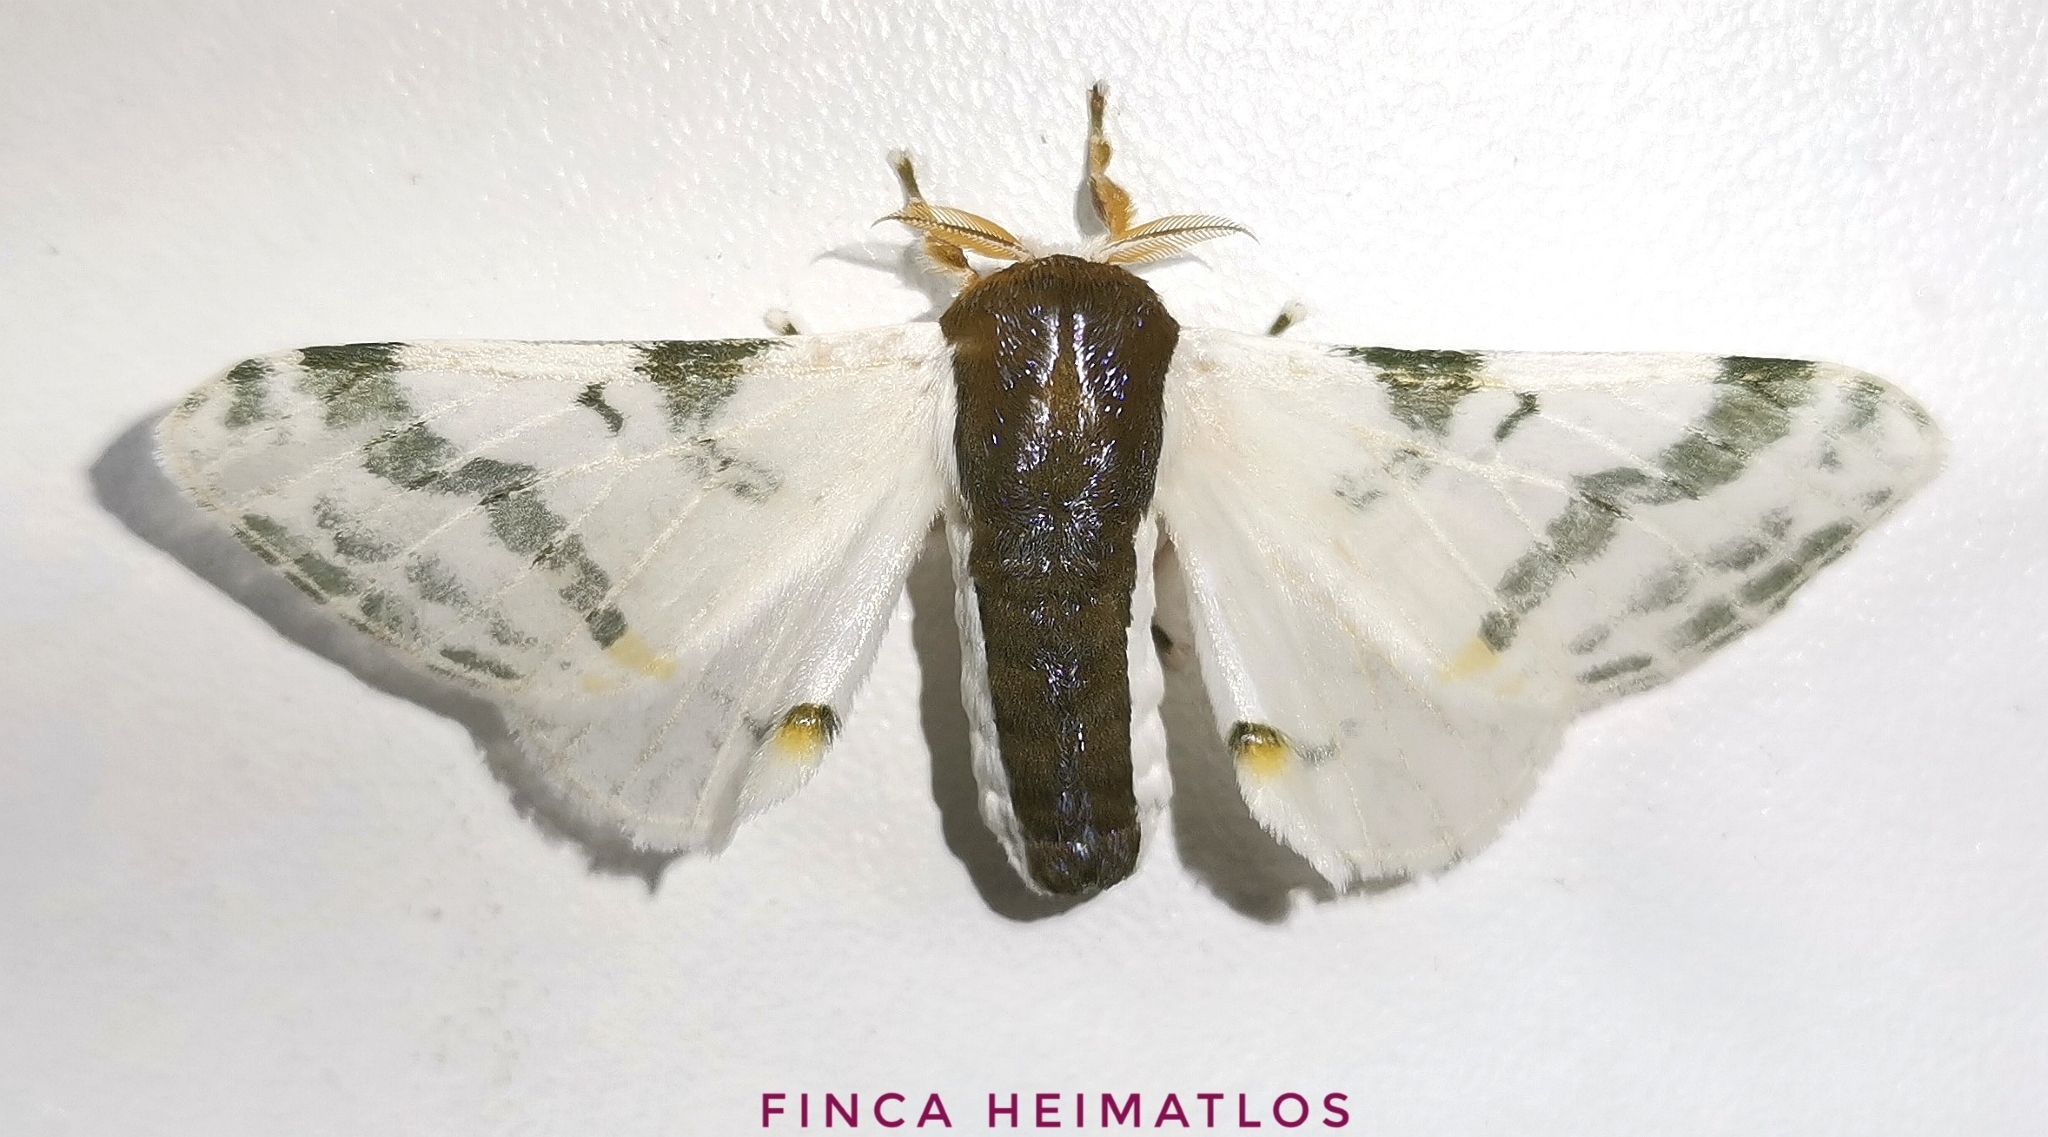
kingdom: Animalia
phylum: Arthropoda
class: Insecta
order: Lepidoptera
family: Bombycidae
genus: Colla
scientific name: Colla rhodope
